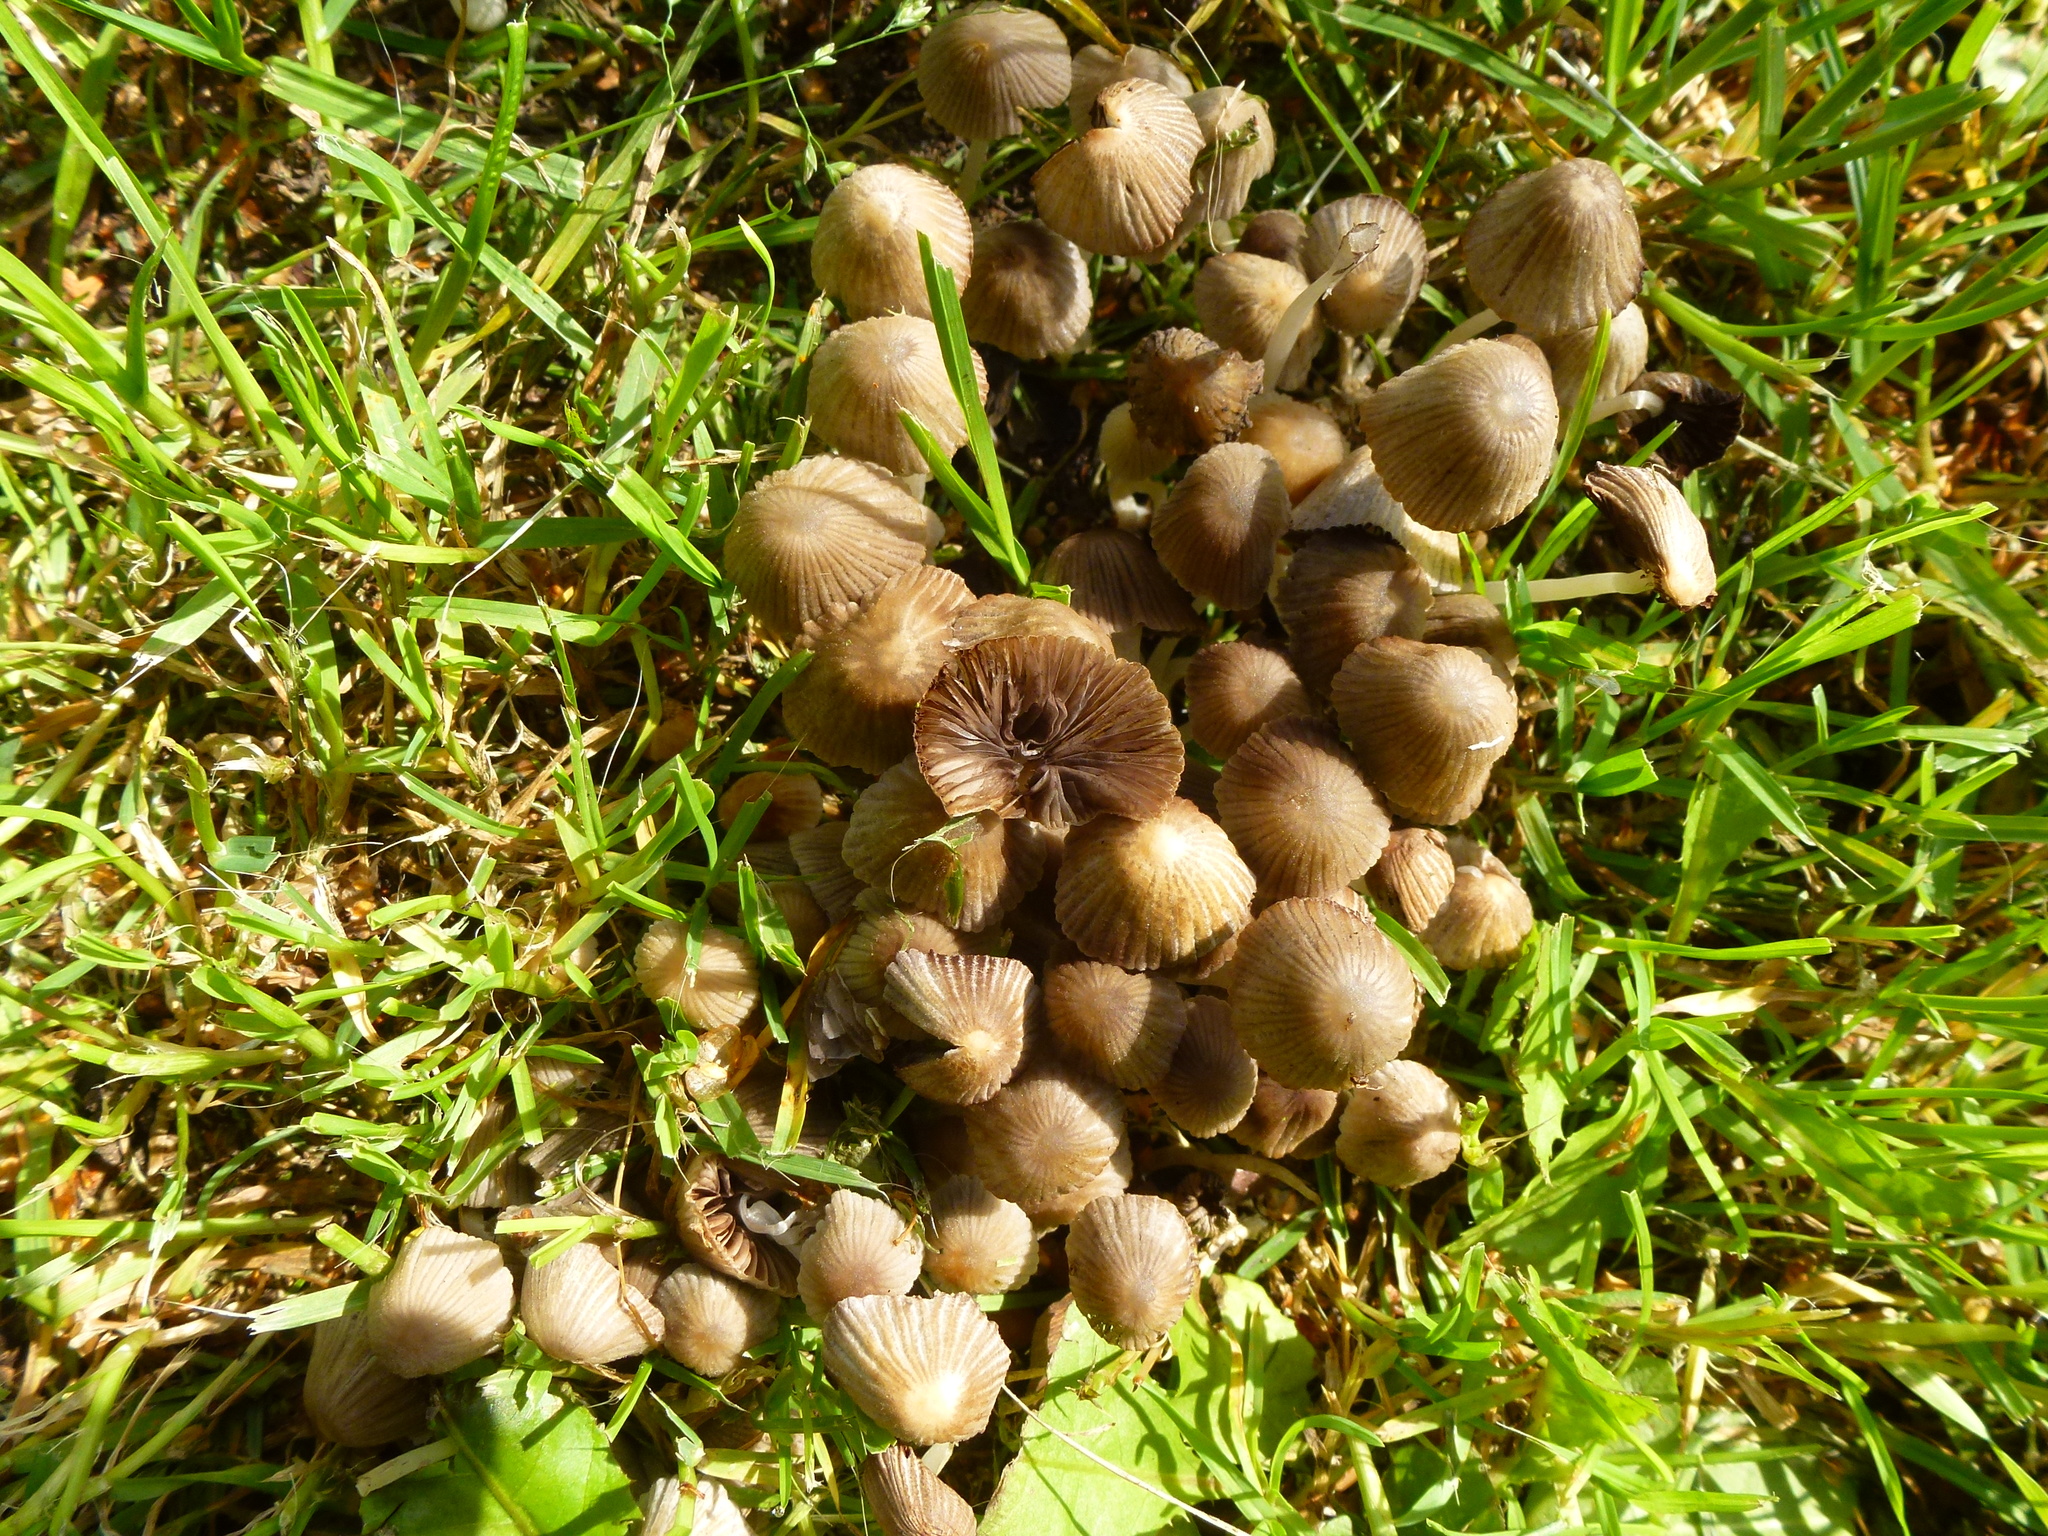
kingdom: Fungi
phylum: Basidiomycota
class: Agaricomycetes
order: Agaricales
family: Psathyrellaceae
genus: Coprinellus
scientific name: Coprinellus micaceus
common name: Glistening ink-cap
